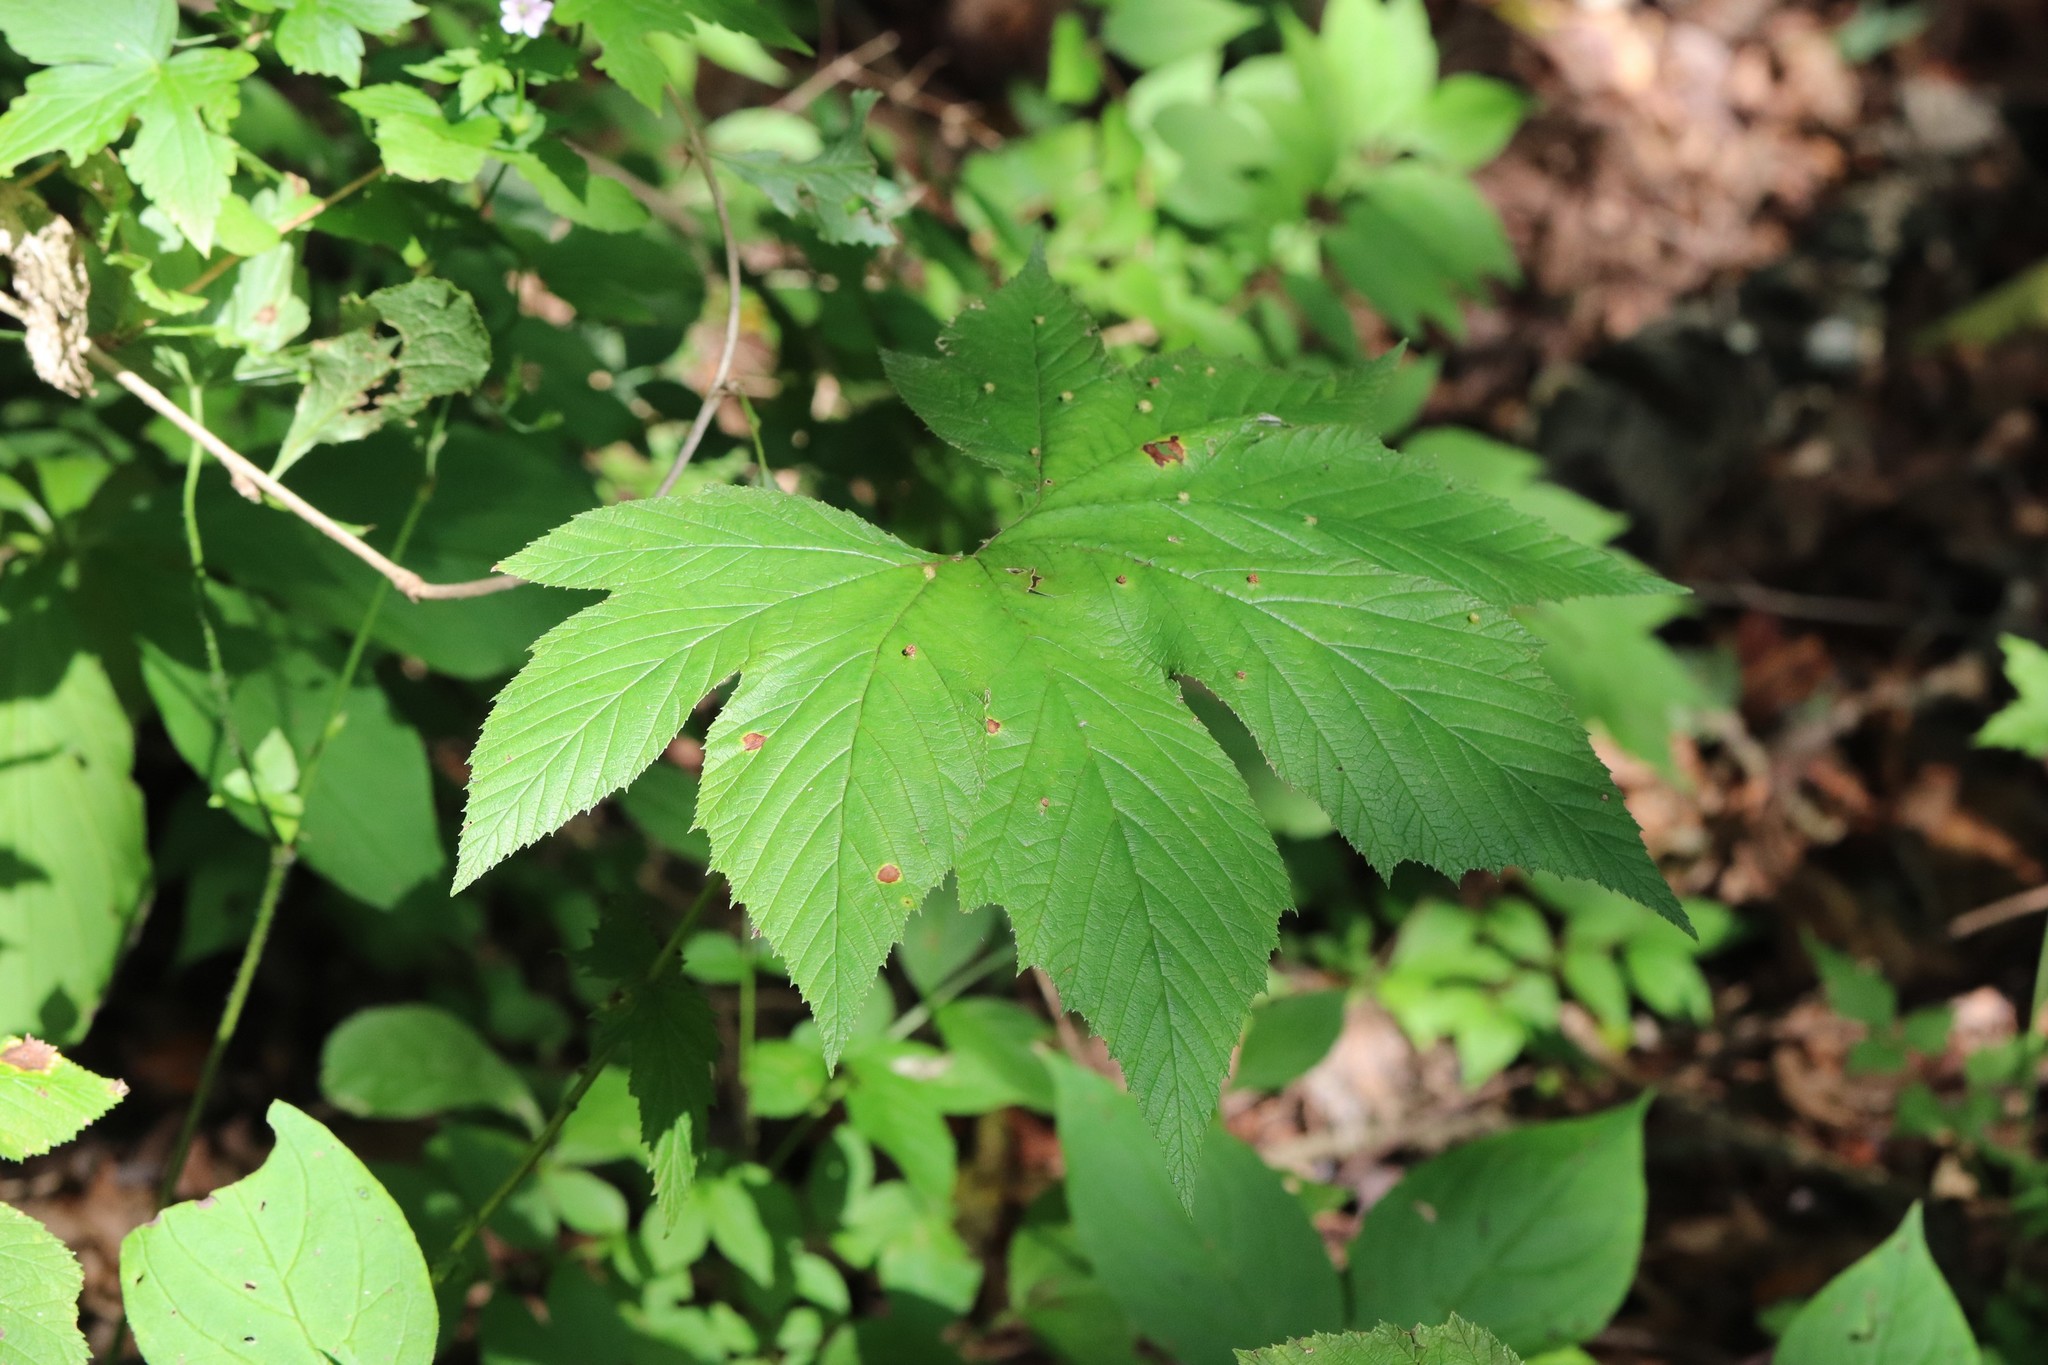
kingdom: Plantae
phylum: Tracheophyta
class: Magnoliopsida
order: Rosales
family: Rosaceae
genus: Filipendula
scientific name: Filipendula digitata
